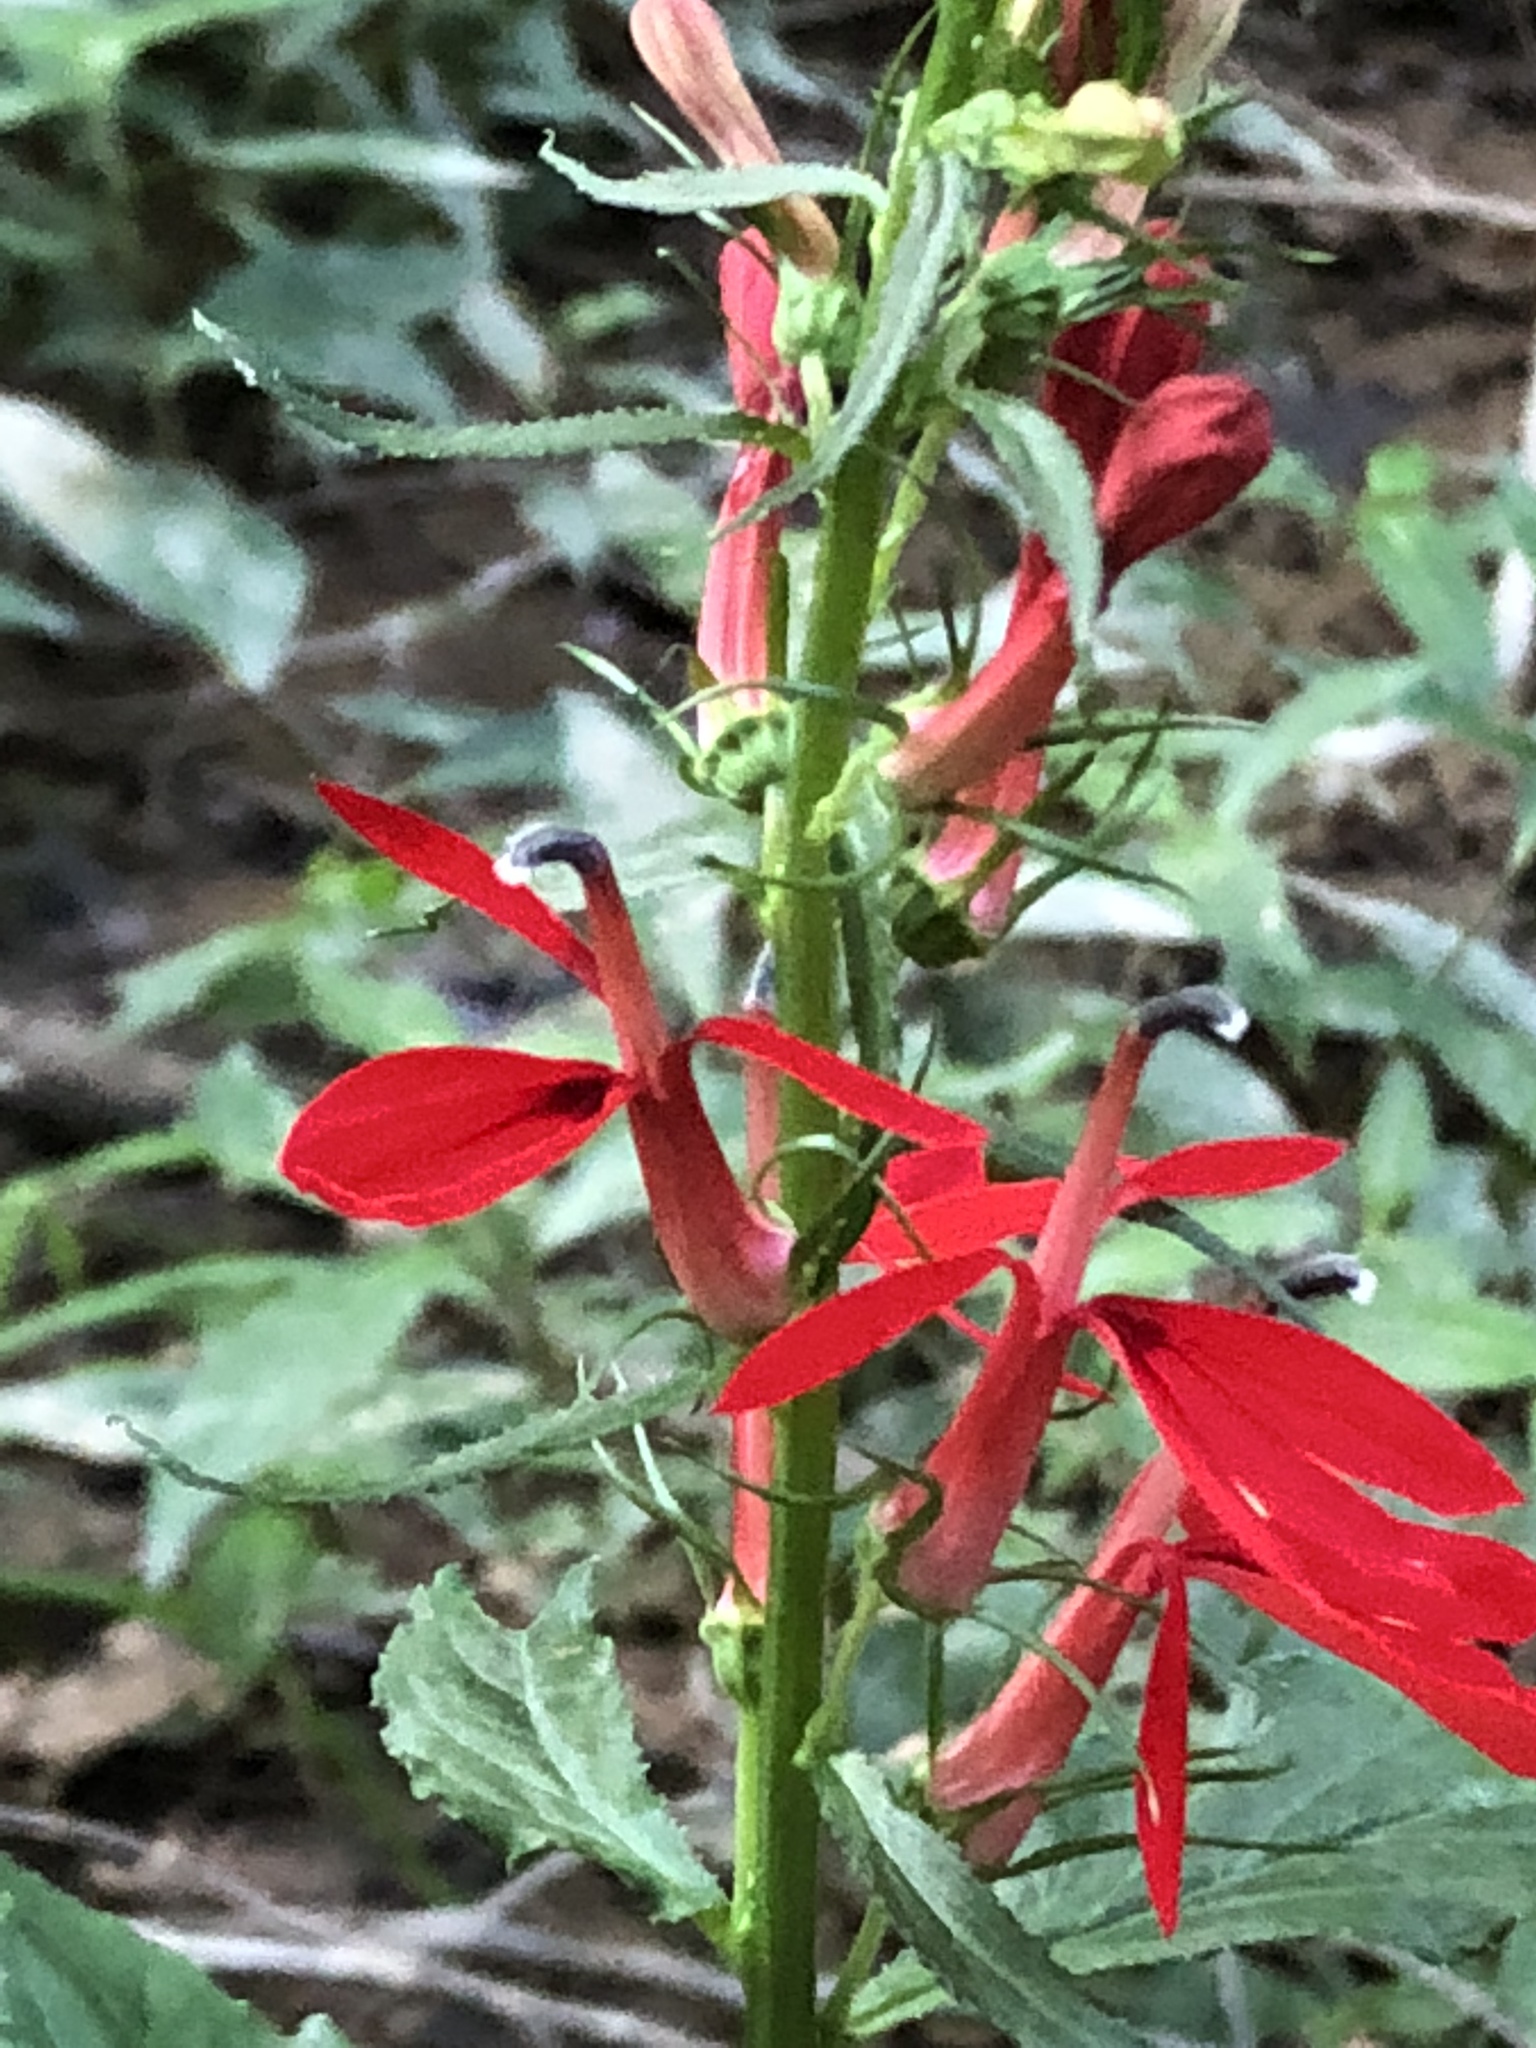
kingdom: Plantae
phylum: Tracheophyta
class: Magnoliopsida
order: Asterales
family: Campanulaceae
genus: Lobelia
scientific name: Lobelia cardinalis
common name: Cardinal flower
